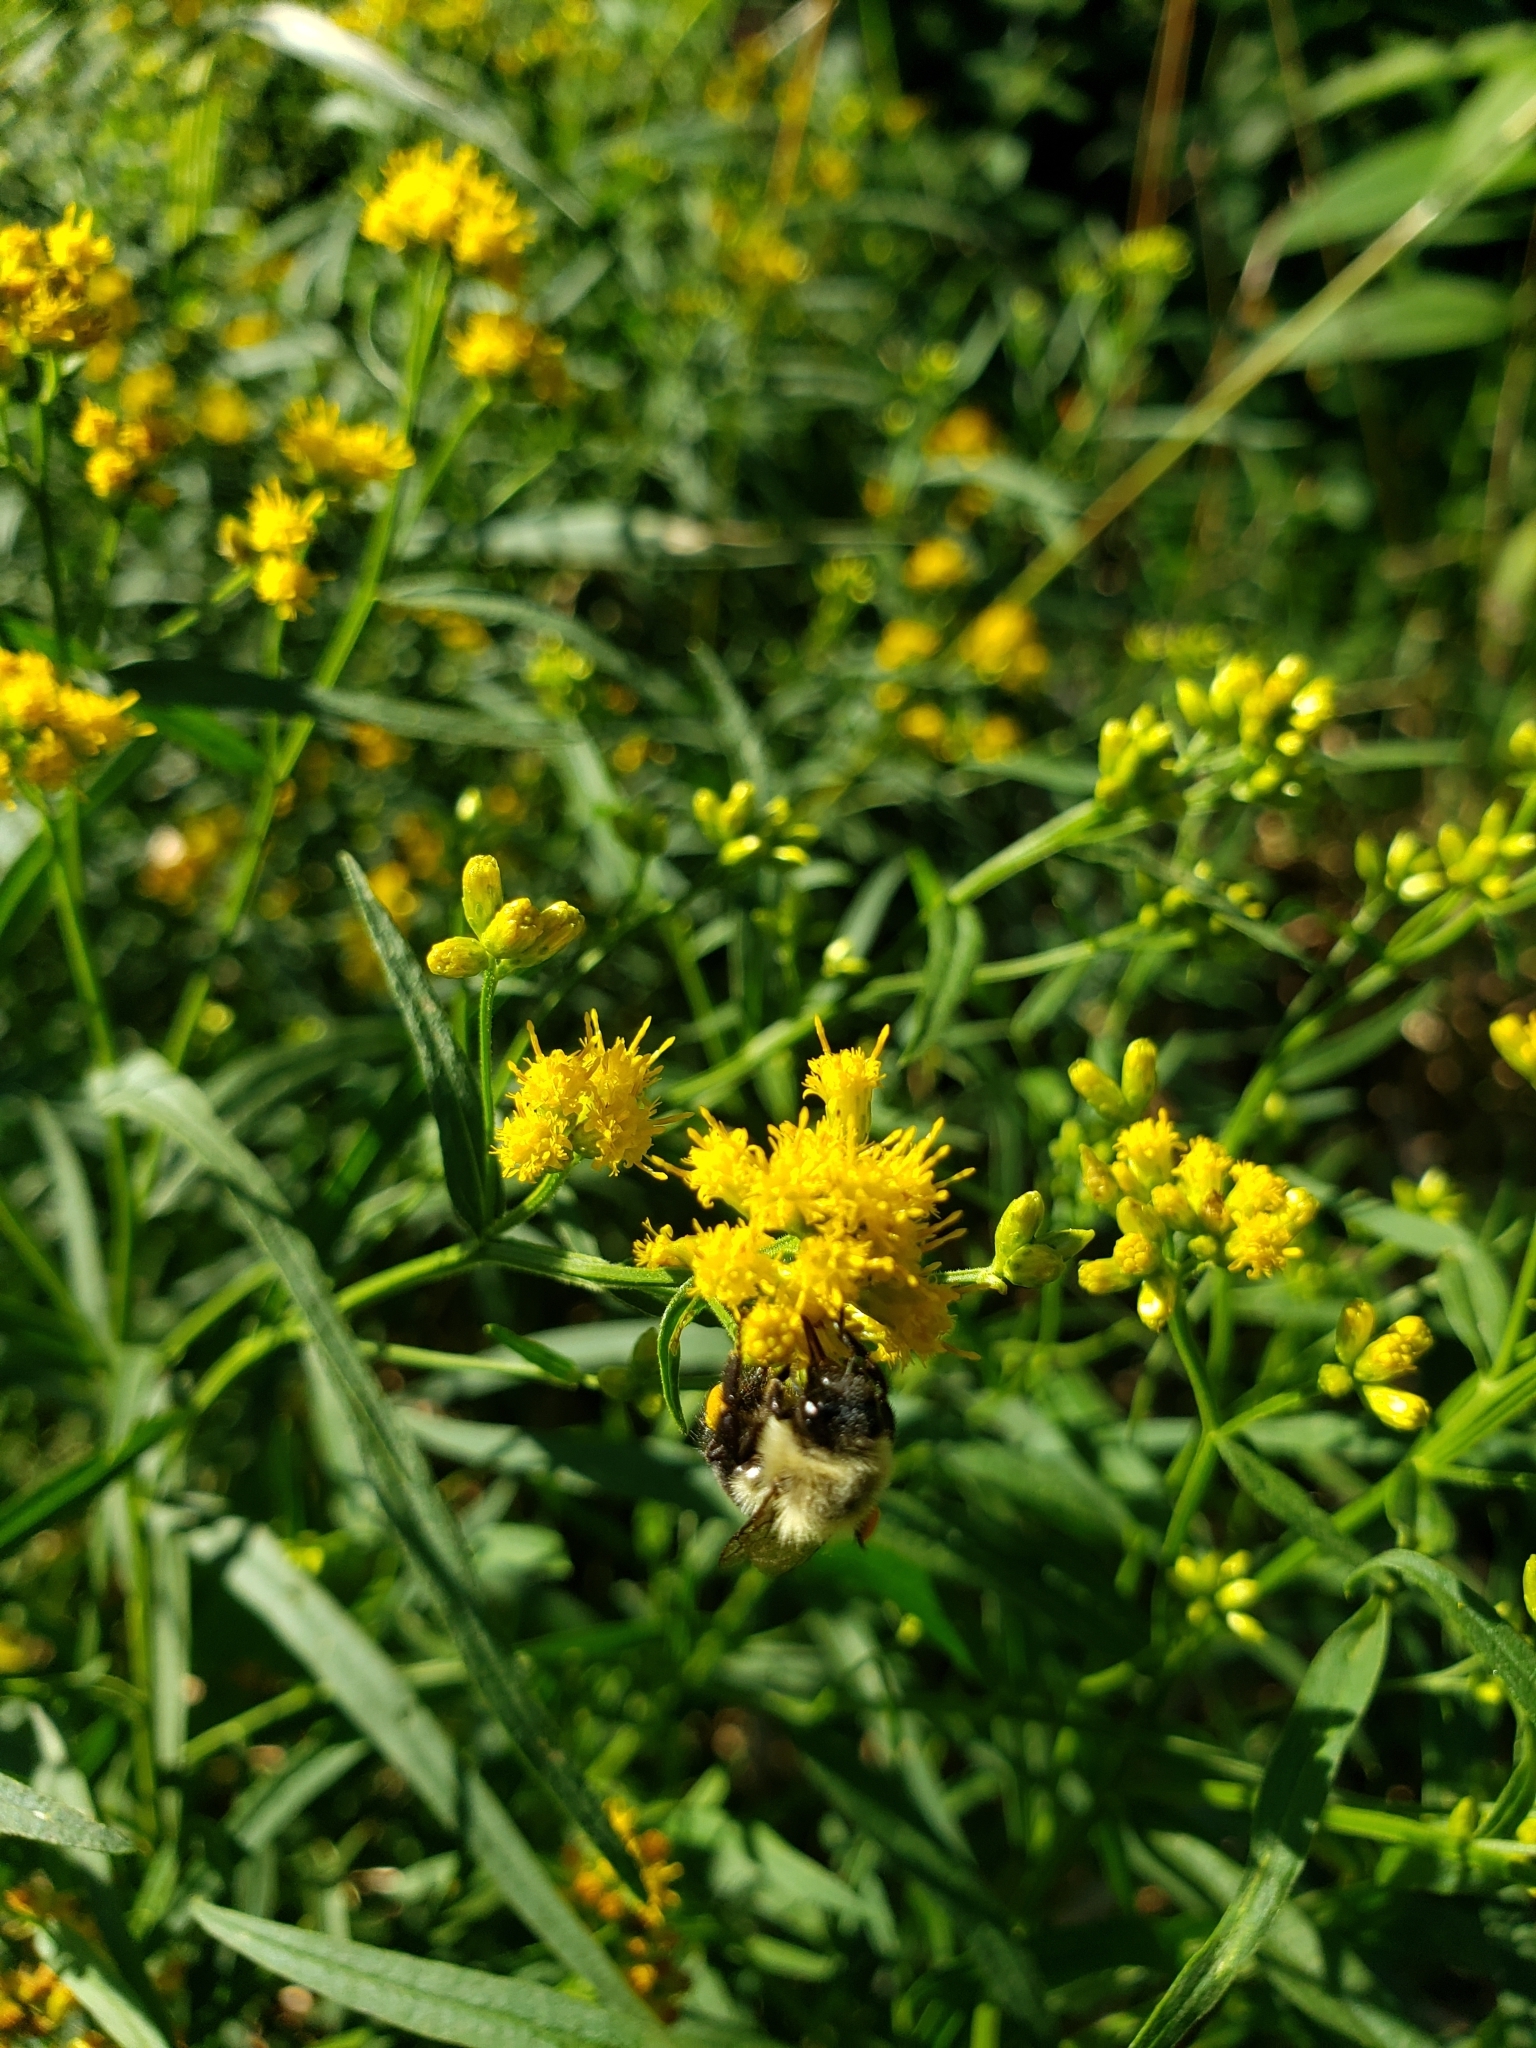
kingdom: Animalia
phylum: Arthropoda
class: Insecta
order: Hymenoptera
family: Apidae
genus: Bombus
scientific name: Bombus impatiens
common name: Common eastern bumble bee
